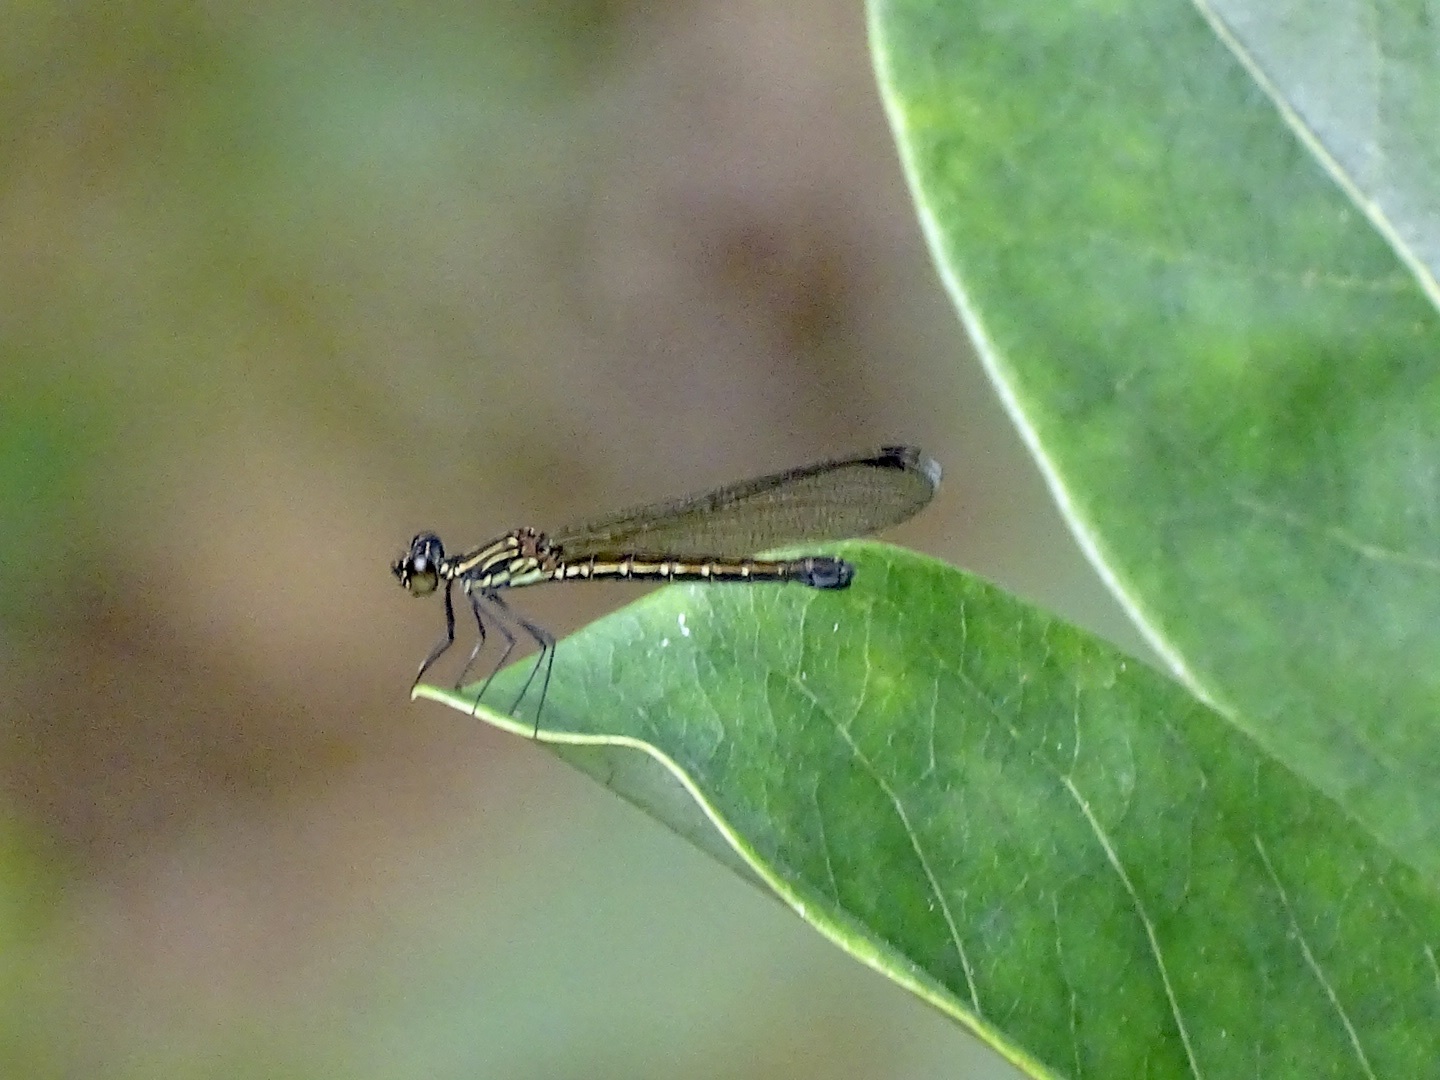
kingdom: Animalia
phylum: Arthropoda
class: Insecta
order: Odonata
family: Chlorocyphidae
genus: Heliocypha
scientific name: Heliocypha perforata
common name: Common blue jewel
